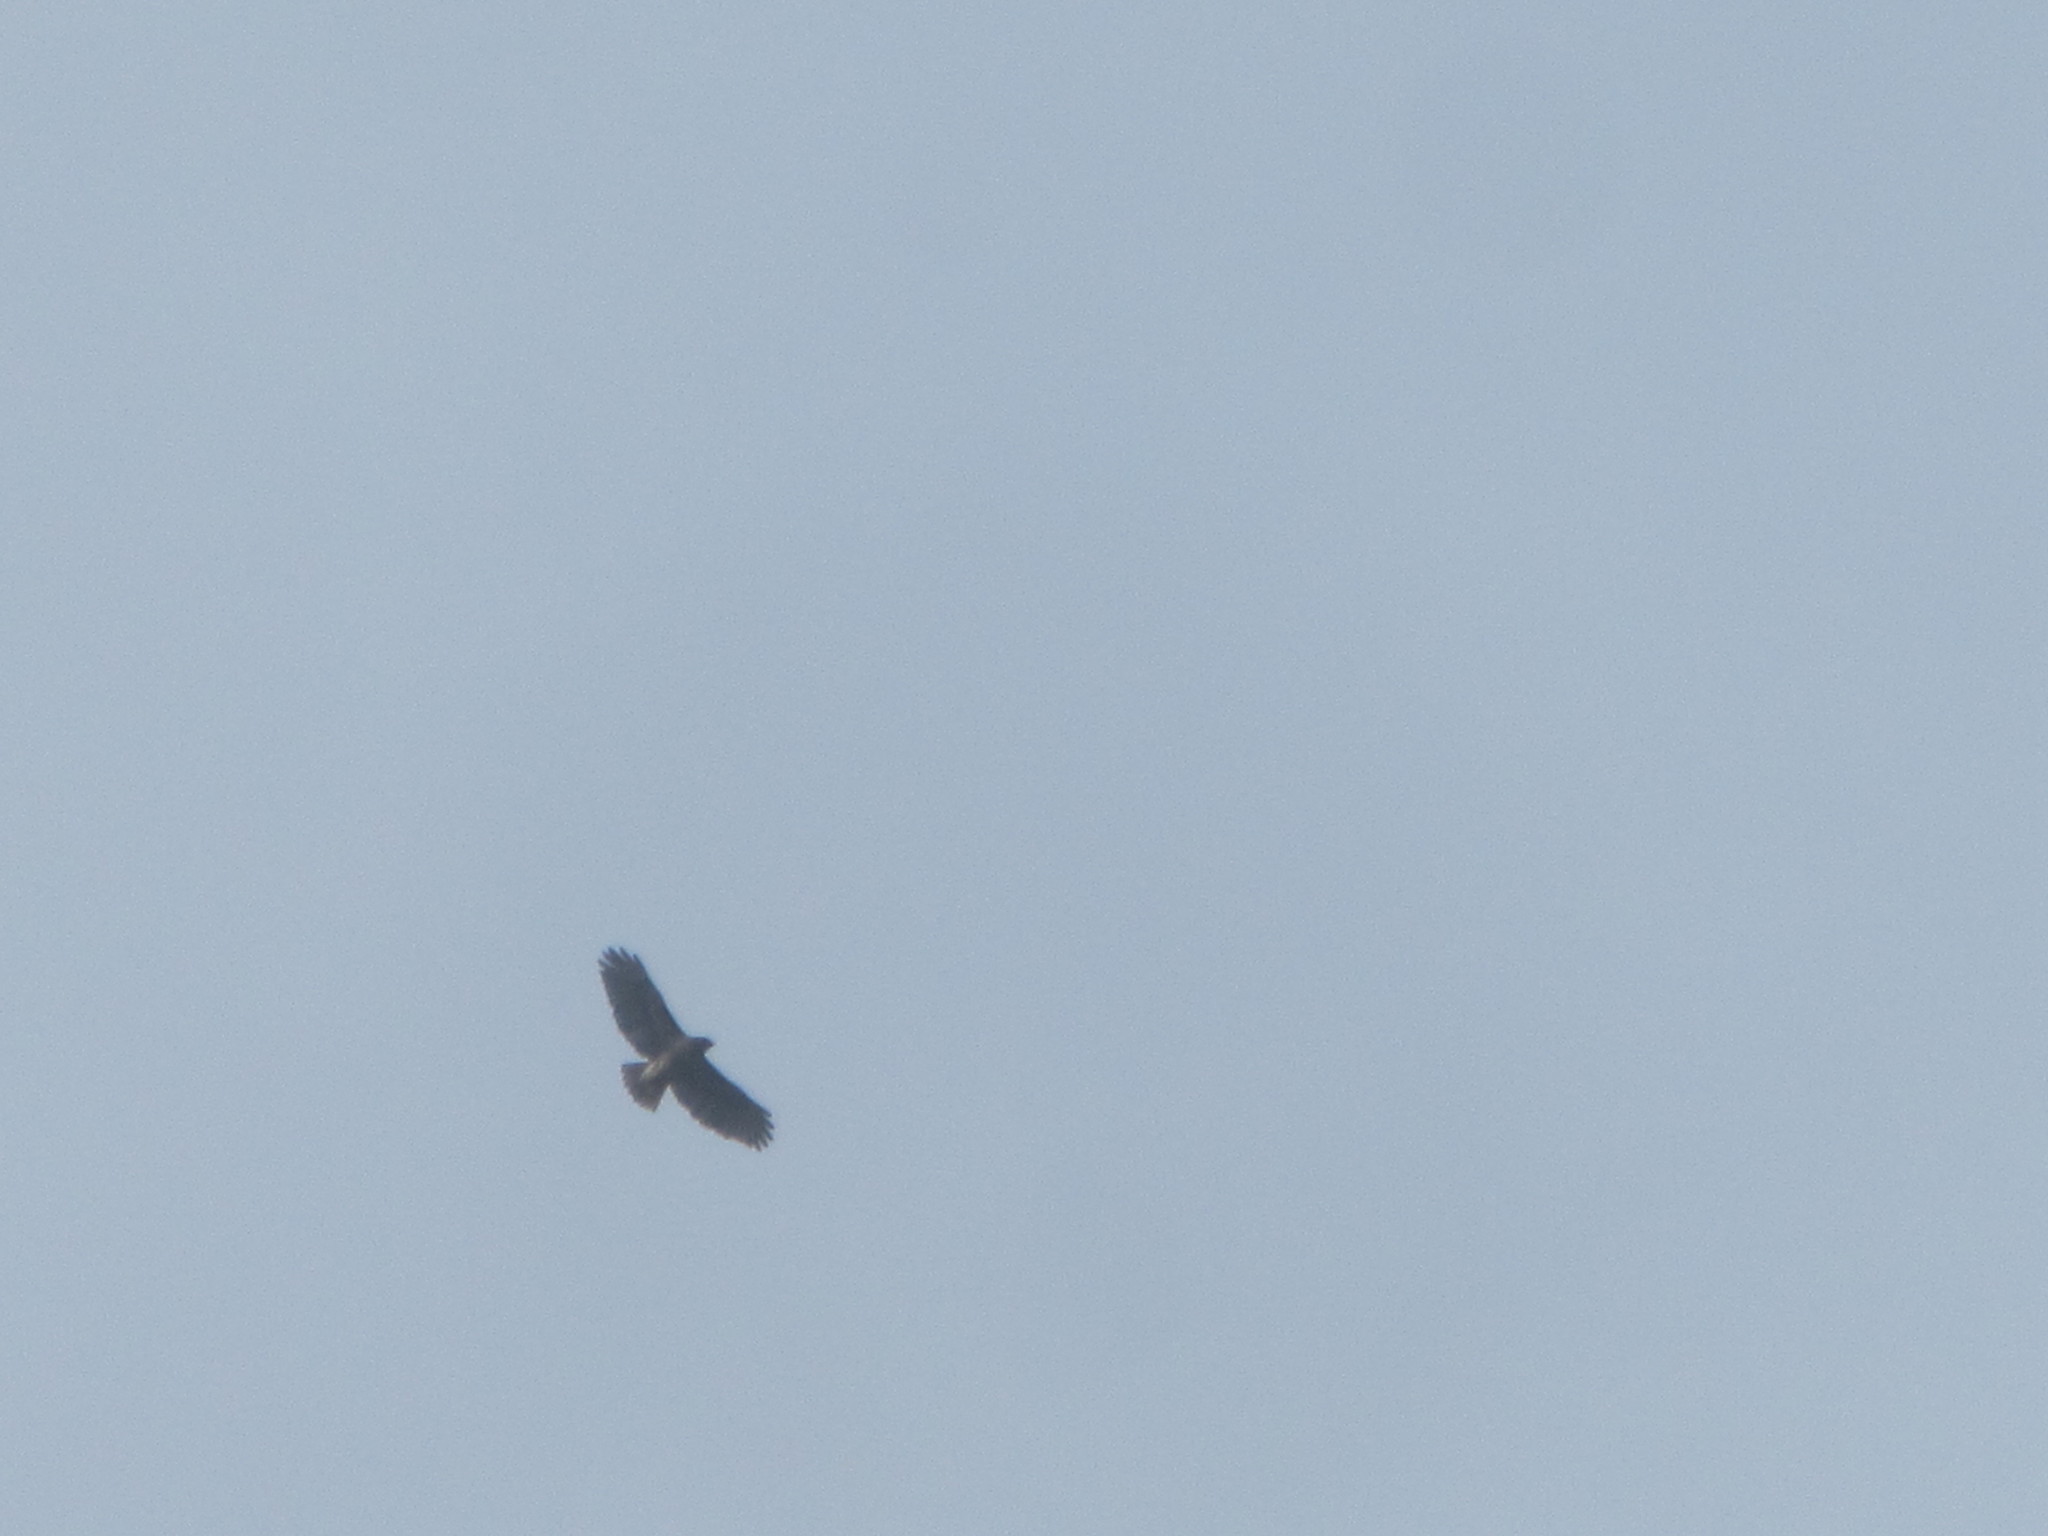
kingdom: Animalia
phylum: Chordata
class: Aves
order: Accipitriformes
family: Accipitridae
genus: Buteo
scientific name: Buteo jamaicensis
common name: Red-tailed hawk
